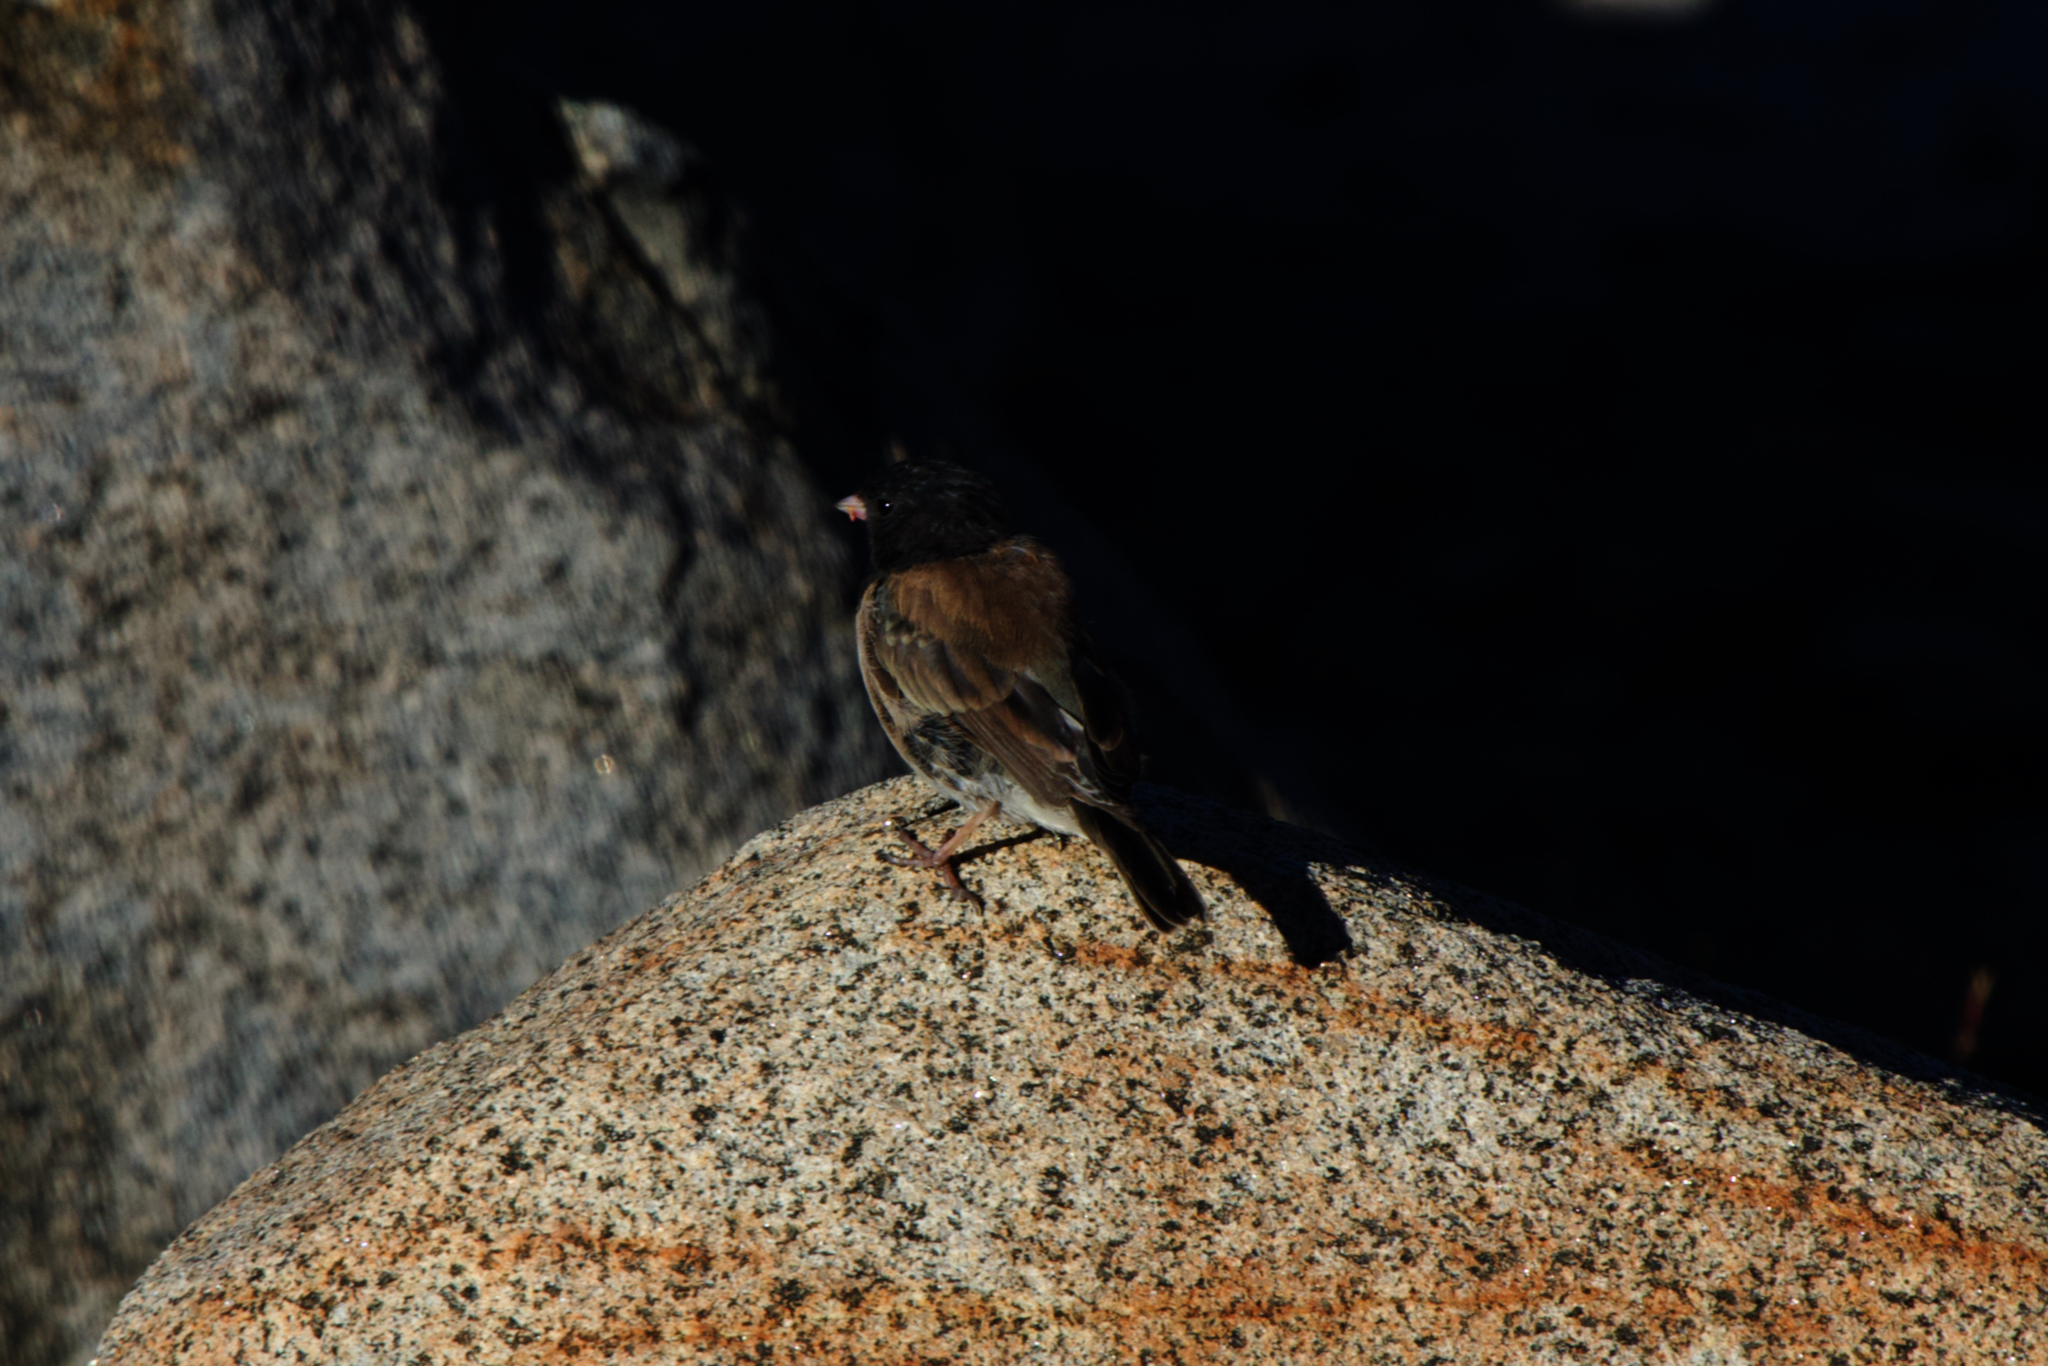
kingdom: Animalia
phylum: Chordata
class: Aves
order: Passeriformes
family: Passerellidae
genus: Junco
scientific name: Junco hyemalis
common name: Dark-eyed junco
